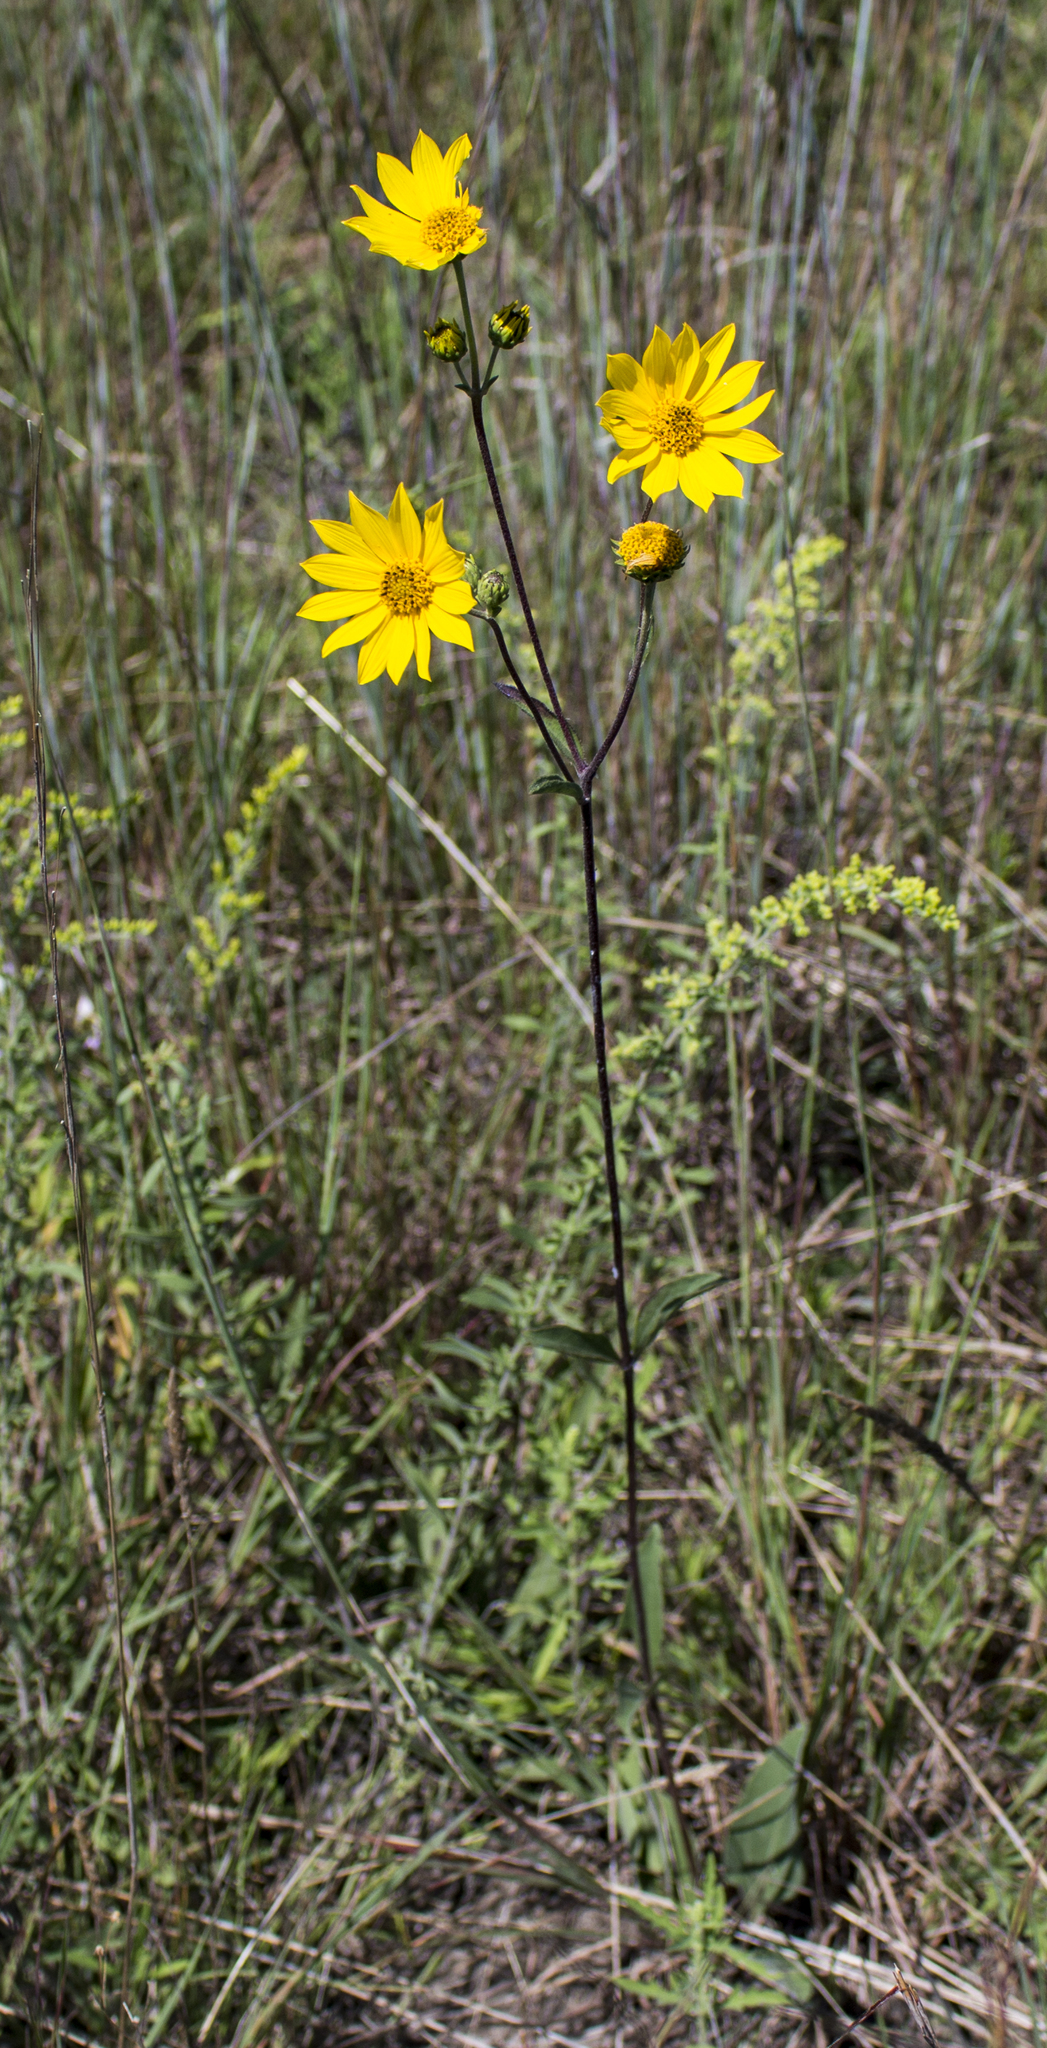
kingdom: Plantae
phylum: Tracheophyta
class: Magnoliopsida
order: Asterales
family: Asteraceae
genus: Helianthus
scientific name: Helianthus occidentalis
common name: Western sunflower
